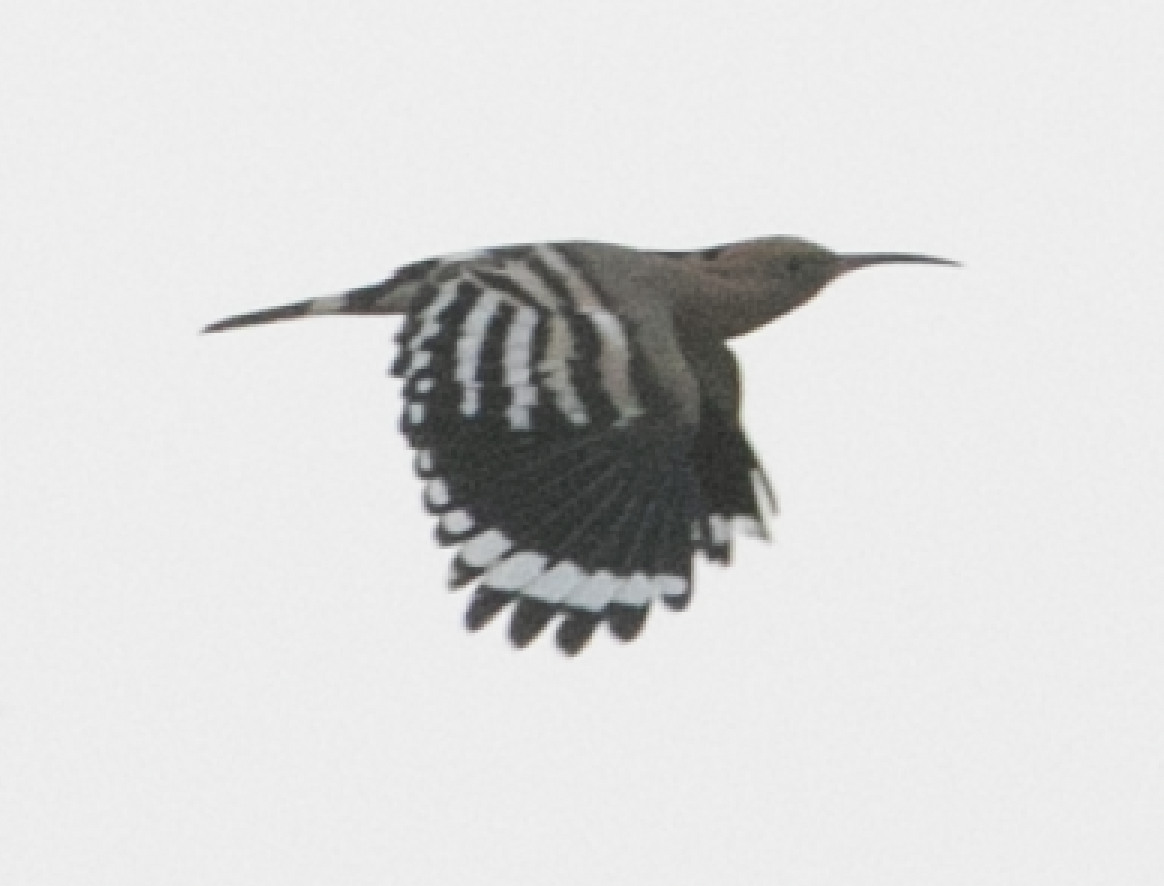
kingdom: Animalia
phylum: Chordata
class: Aves
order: Bucerotiformes
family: Upupidae
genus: Upupa
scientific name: Upupa epops
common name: Eurasian hoopoe
